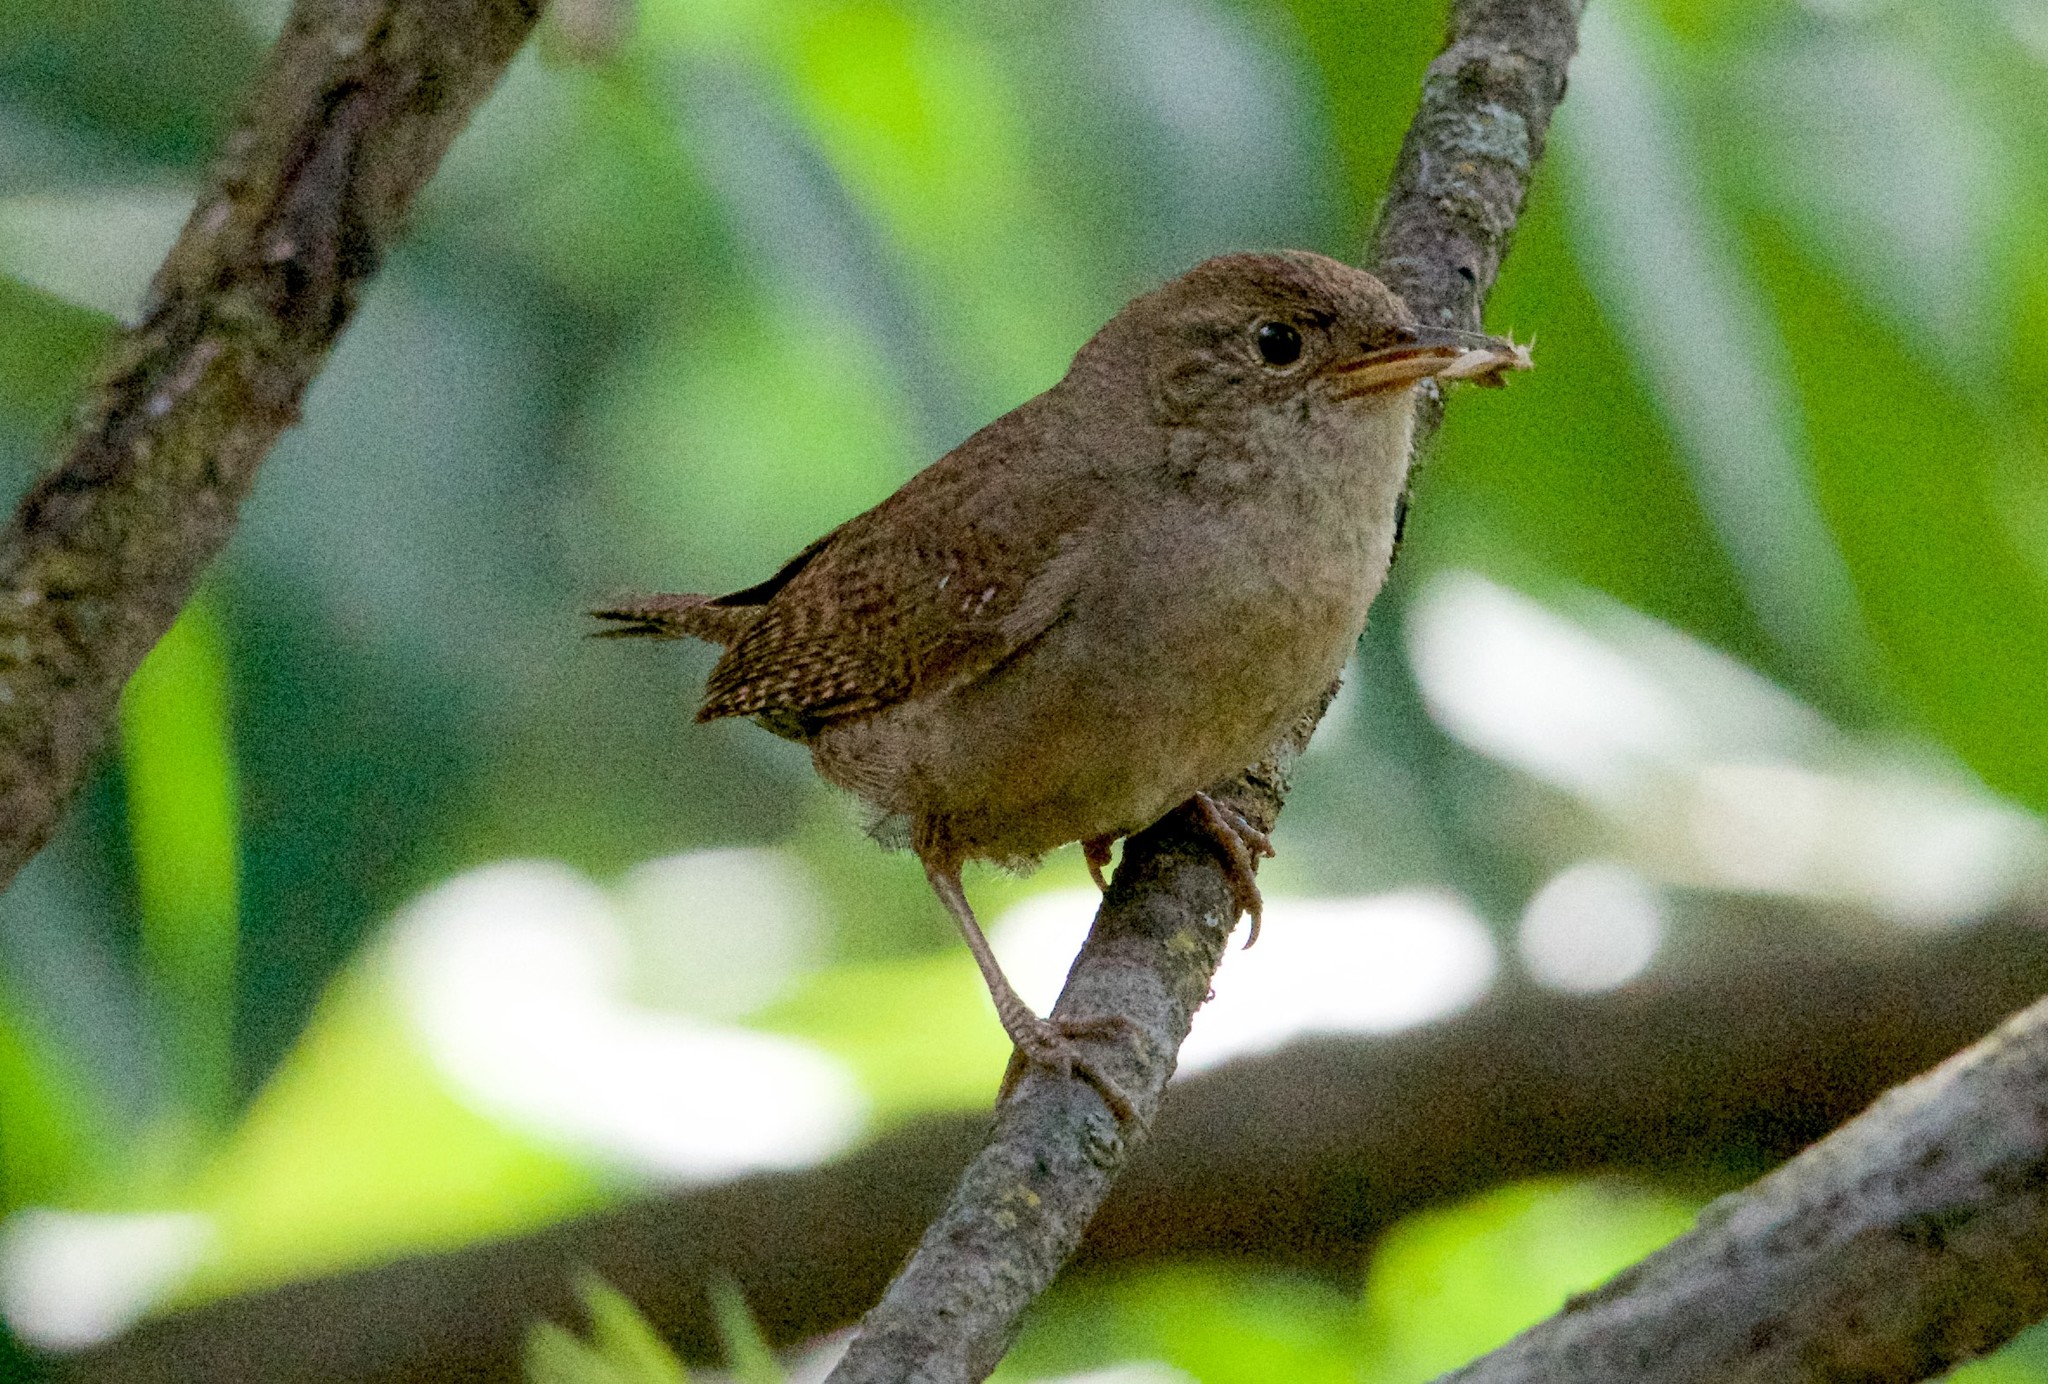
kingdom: Animalia
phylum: Chordata
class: Aves
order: Passeriformes
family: Troglodytidae
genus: Troglodytes
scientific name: Troglodytes aedon
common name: House wren
